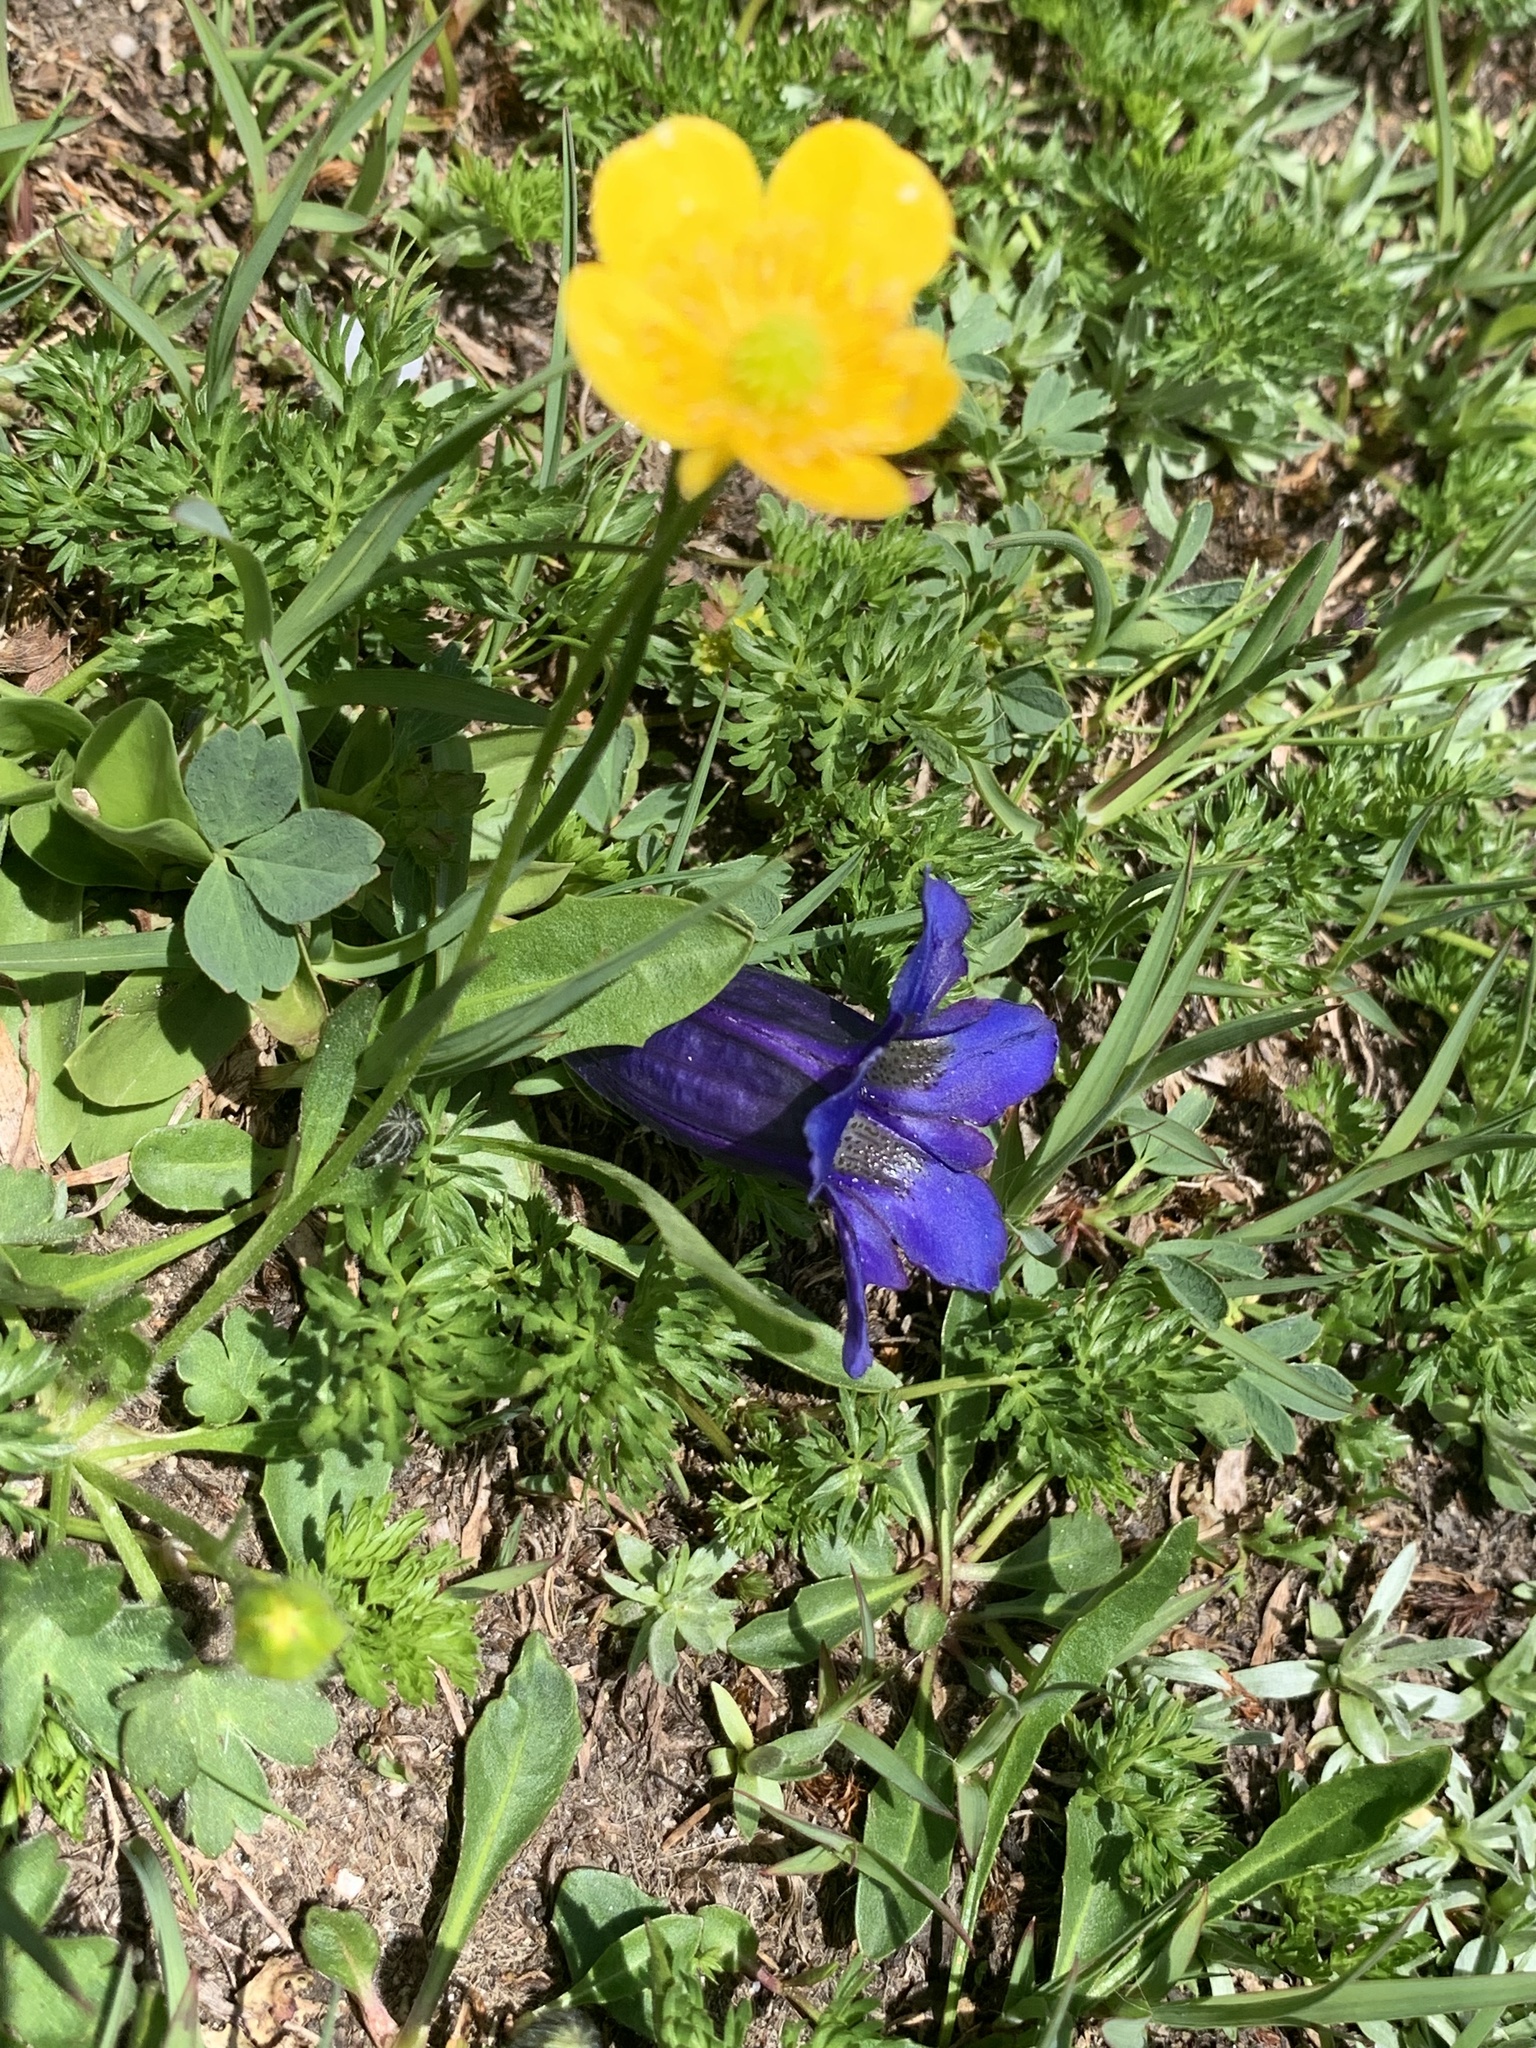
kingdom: Plantae
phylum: Tracheophyta
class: Magnoliopsida
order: Gentianales
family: Gentianaceae
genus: Gentiana
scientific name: Gentiana acaulis
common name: Trumpet gentian
